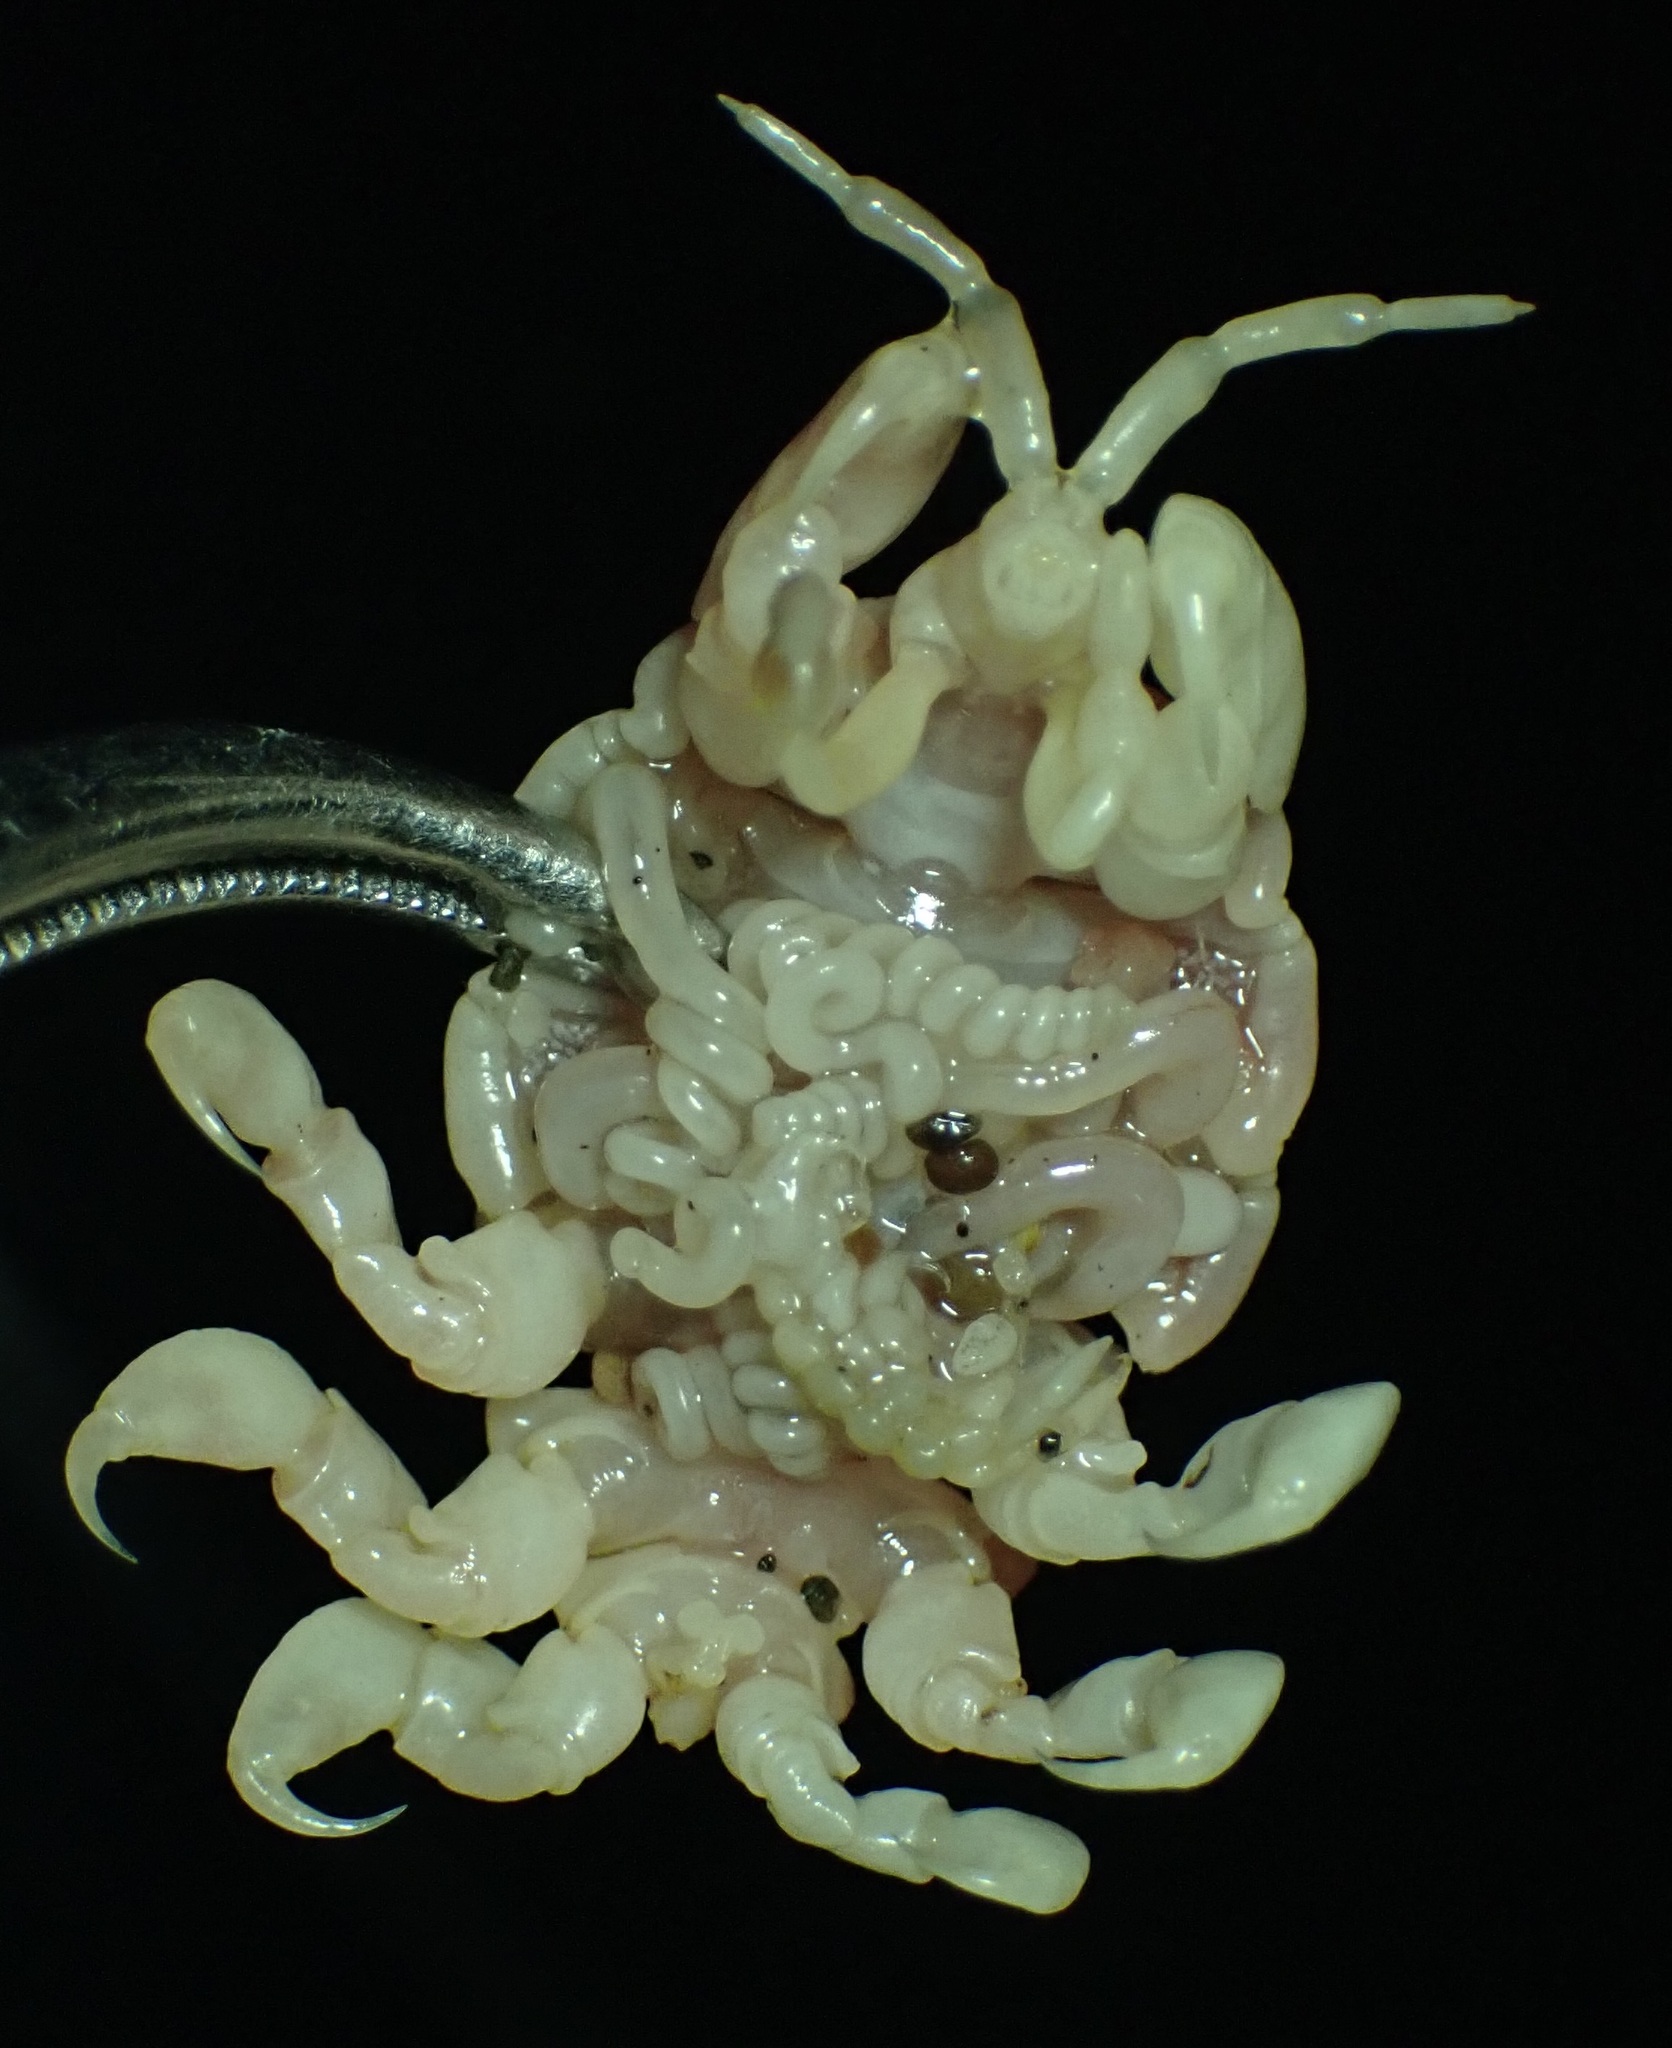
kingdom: Animalia
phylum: Arthropoda
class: Malacostraca
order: Amphipoda
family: Cyamidae
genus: Cyamus
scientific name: Cyamus scammoni
